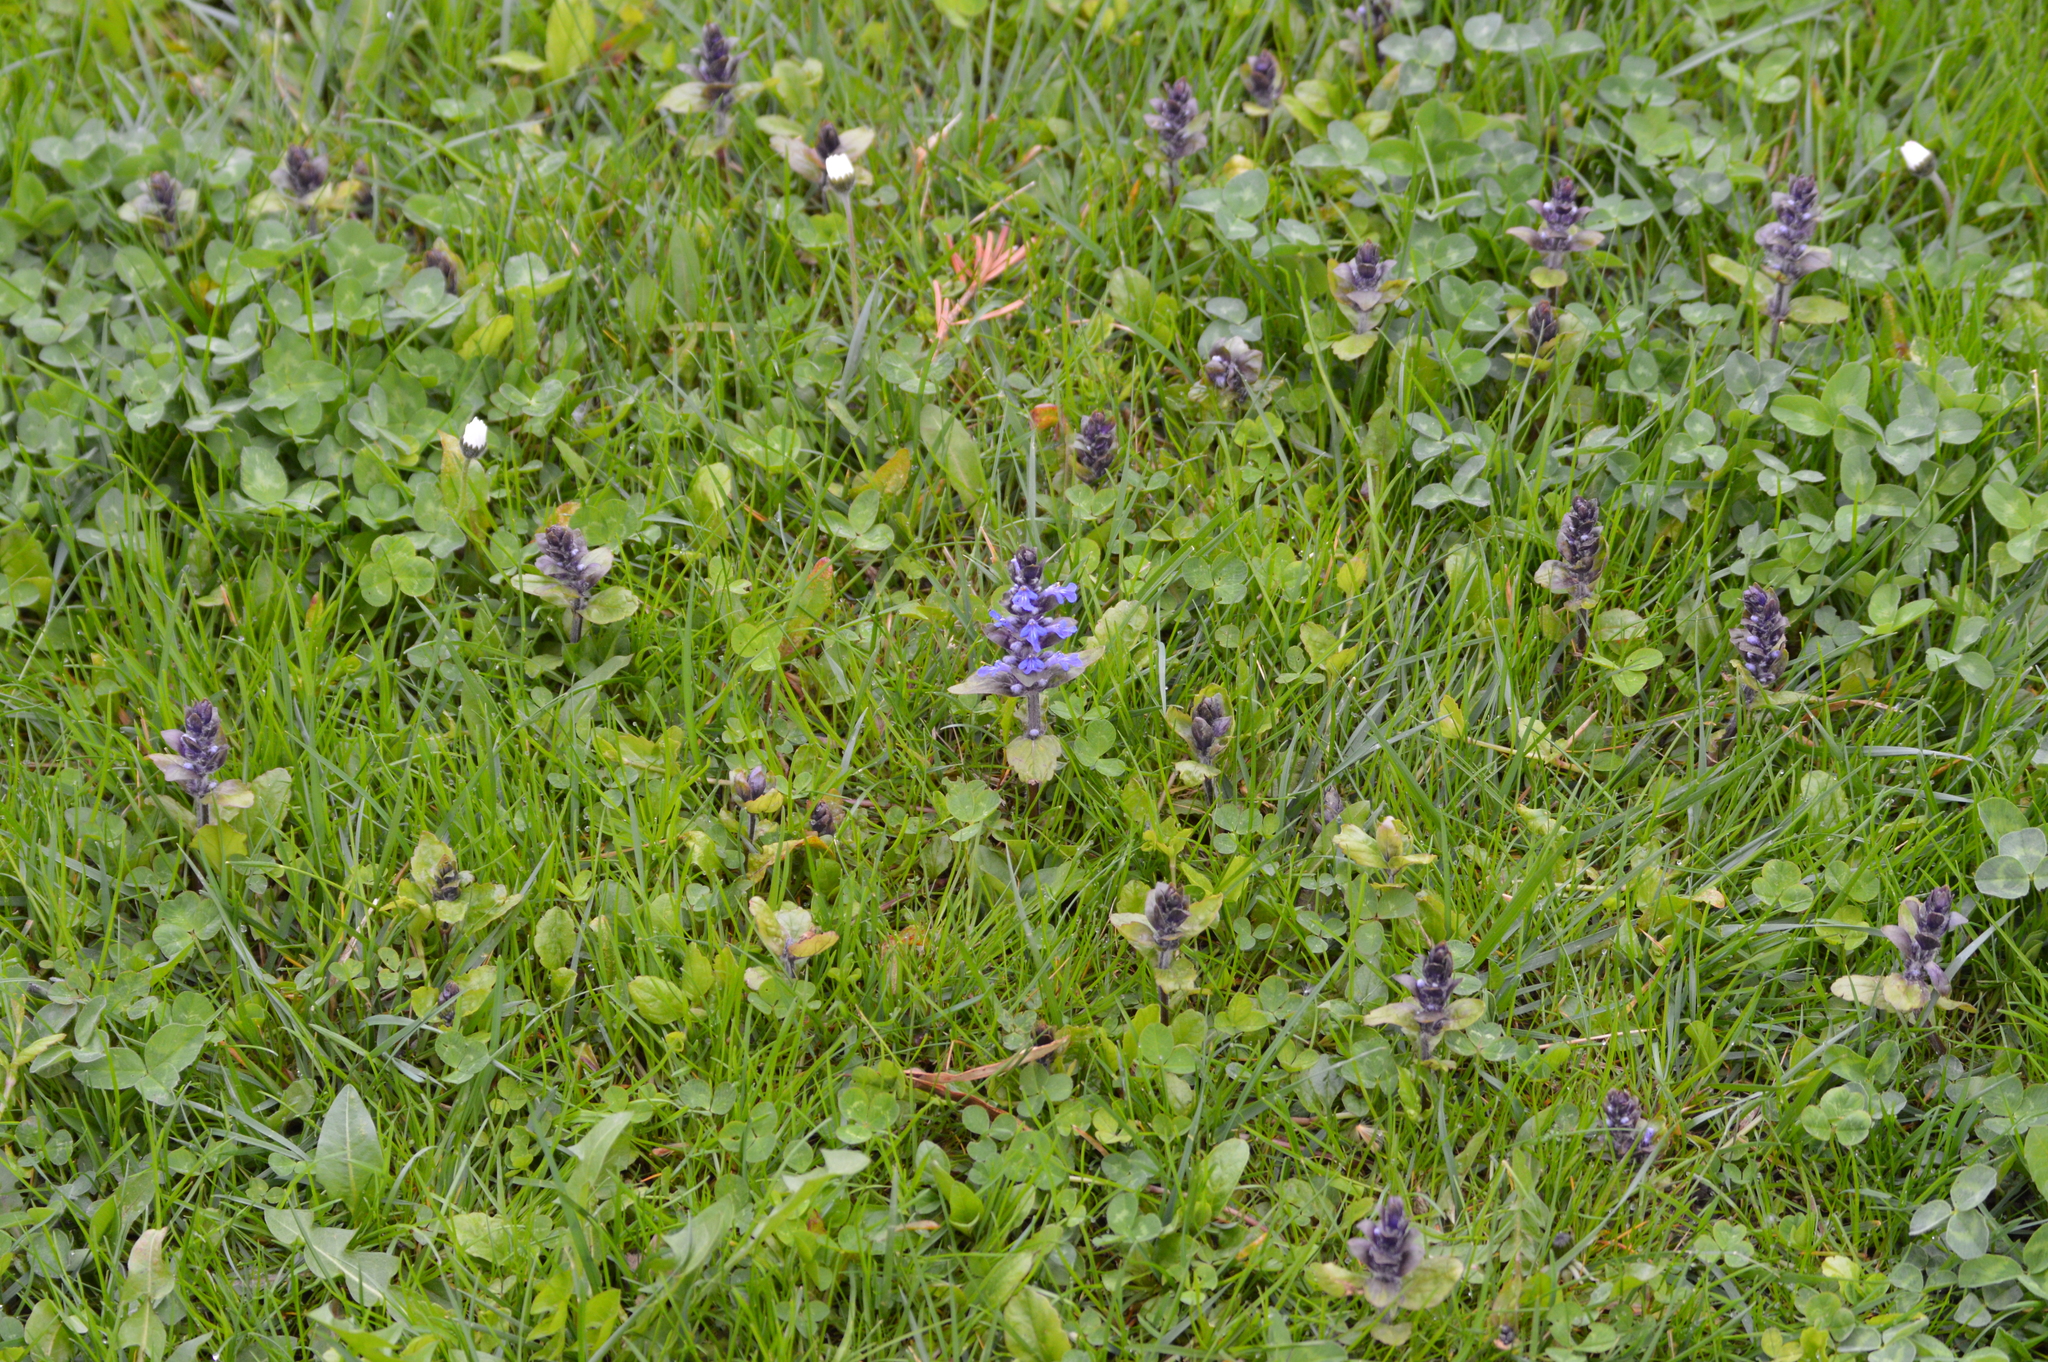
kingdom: Plantae
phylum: Tracheophyta
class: Magnoliopsida
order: Lamiales
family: Lamiaceae
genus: Ajuga
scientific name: Ajuga reptans
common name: Bugle
